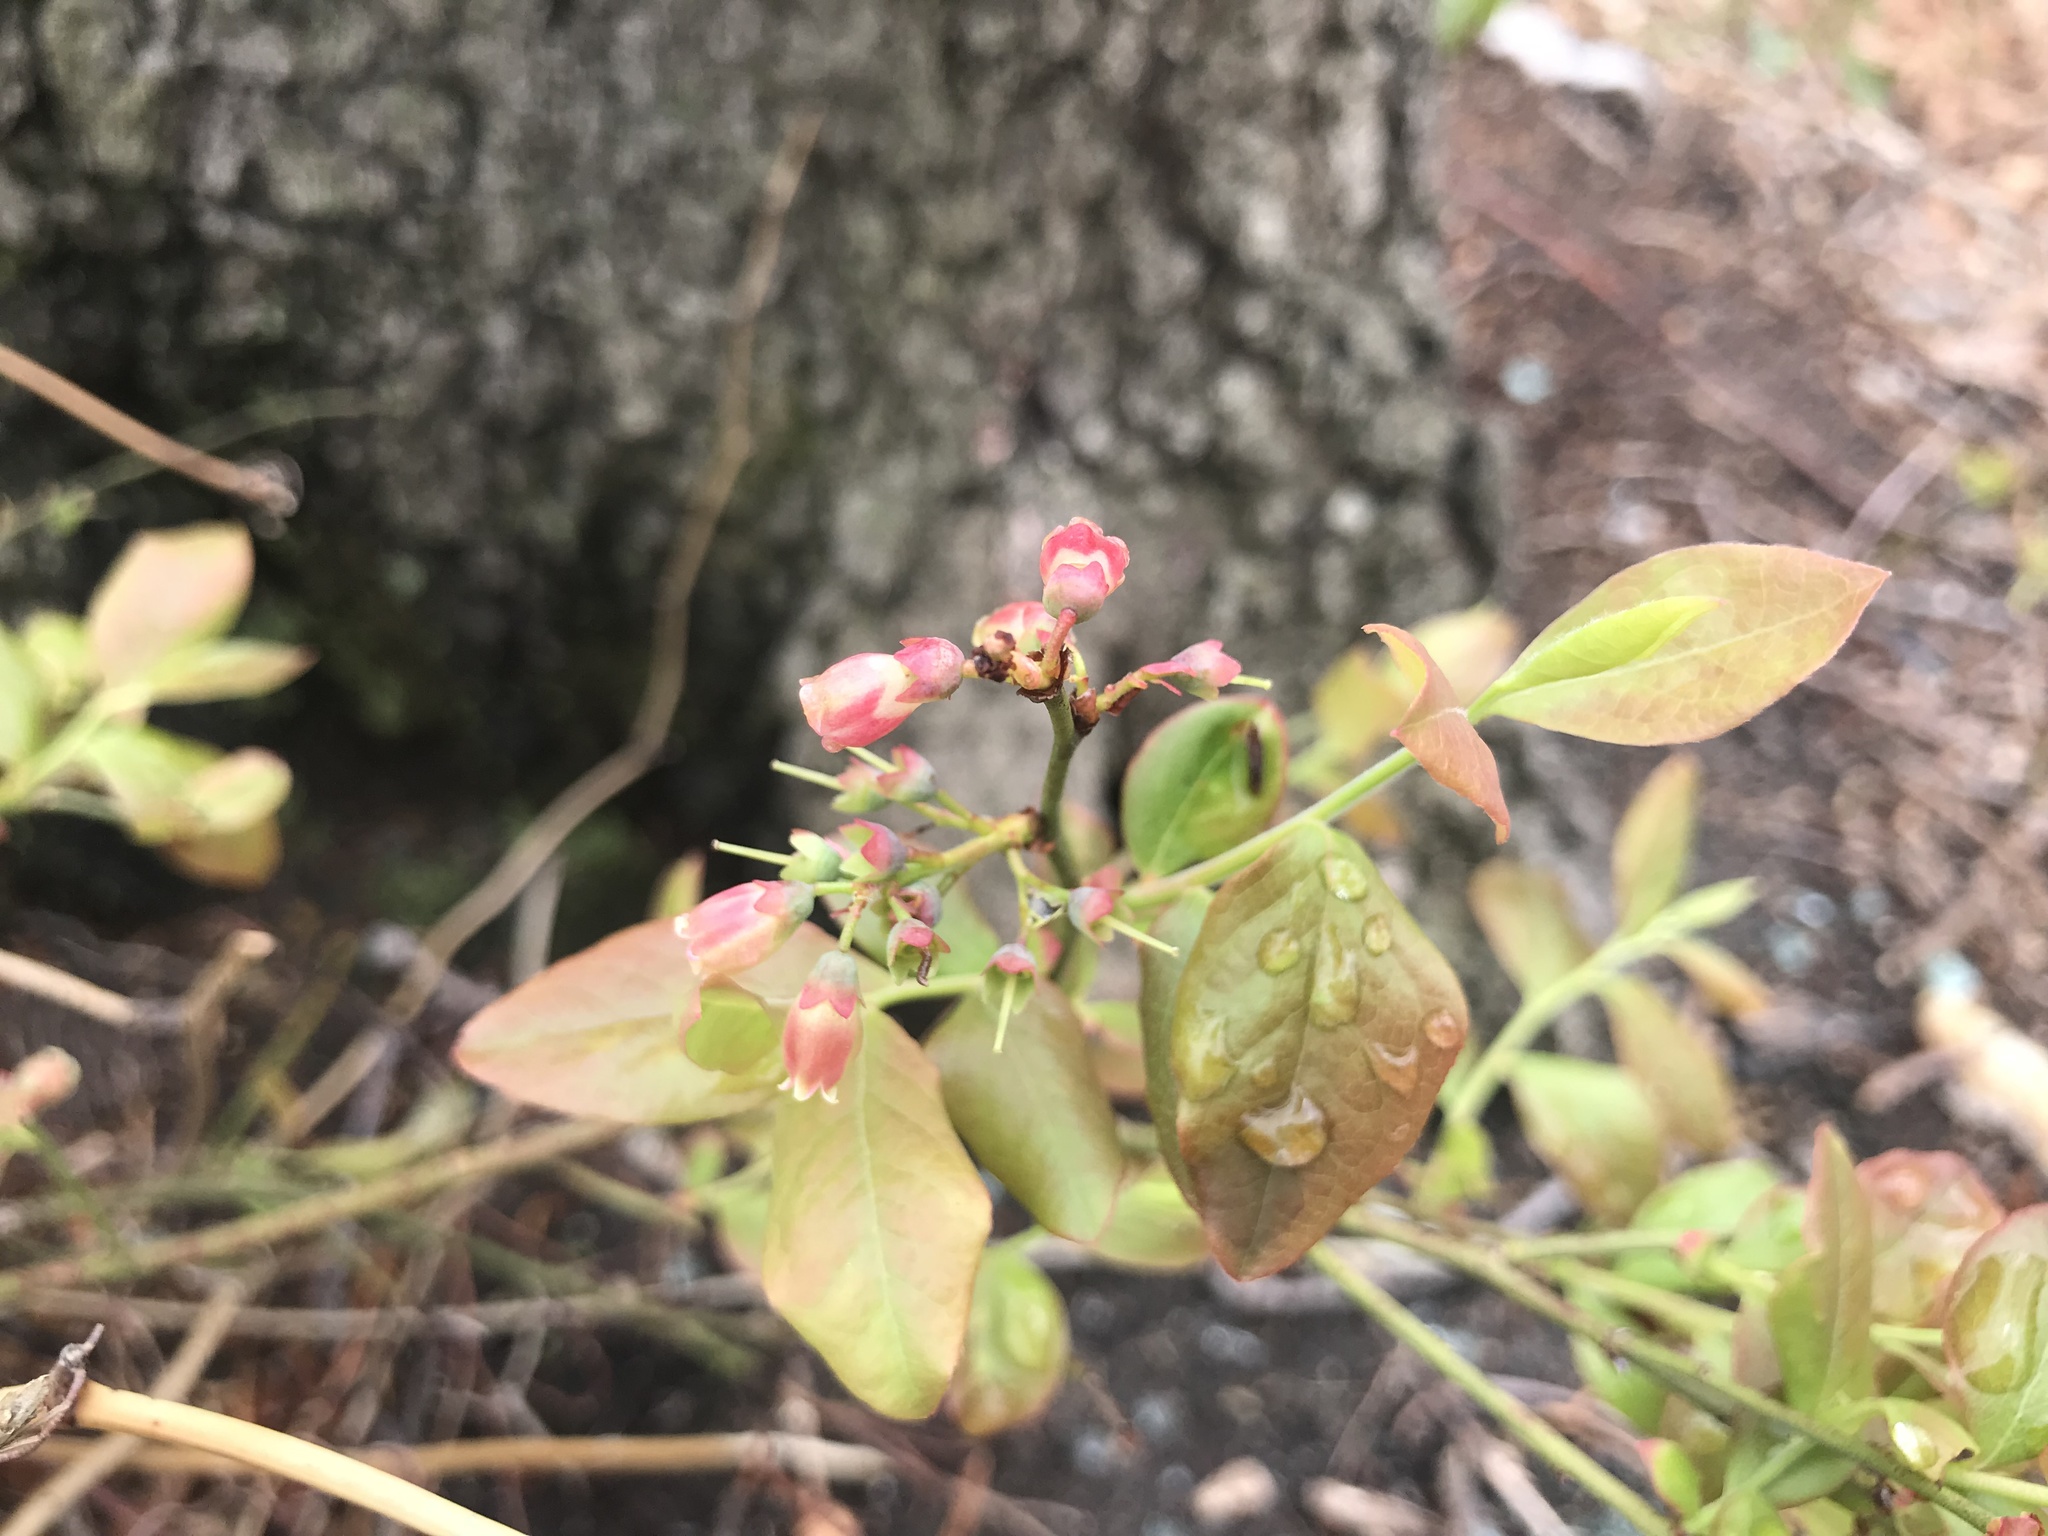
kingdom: Plantae
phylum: Tracheophyta
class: Magnoliopsida
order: Ericales
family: Ericaceae
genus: Vaccinium
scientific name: Vaccinium pallidum
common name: Blue ridge blueberry
